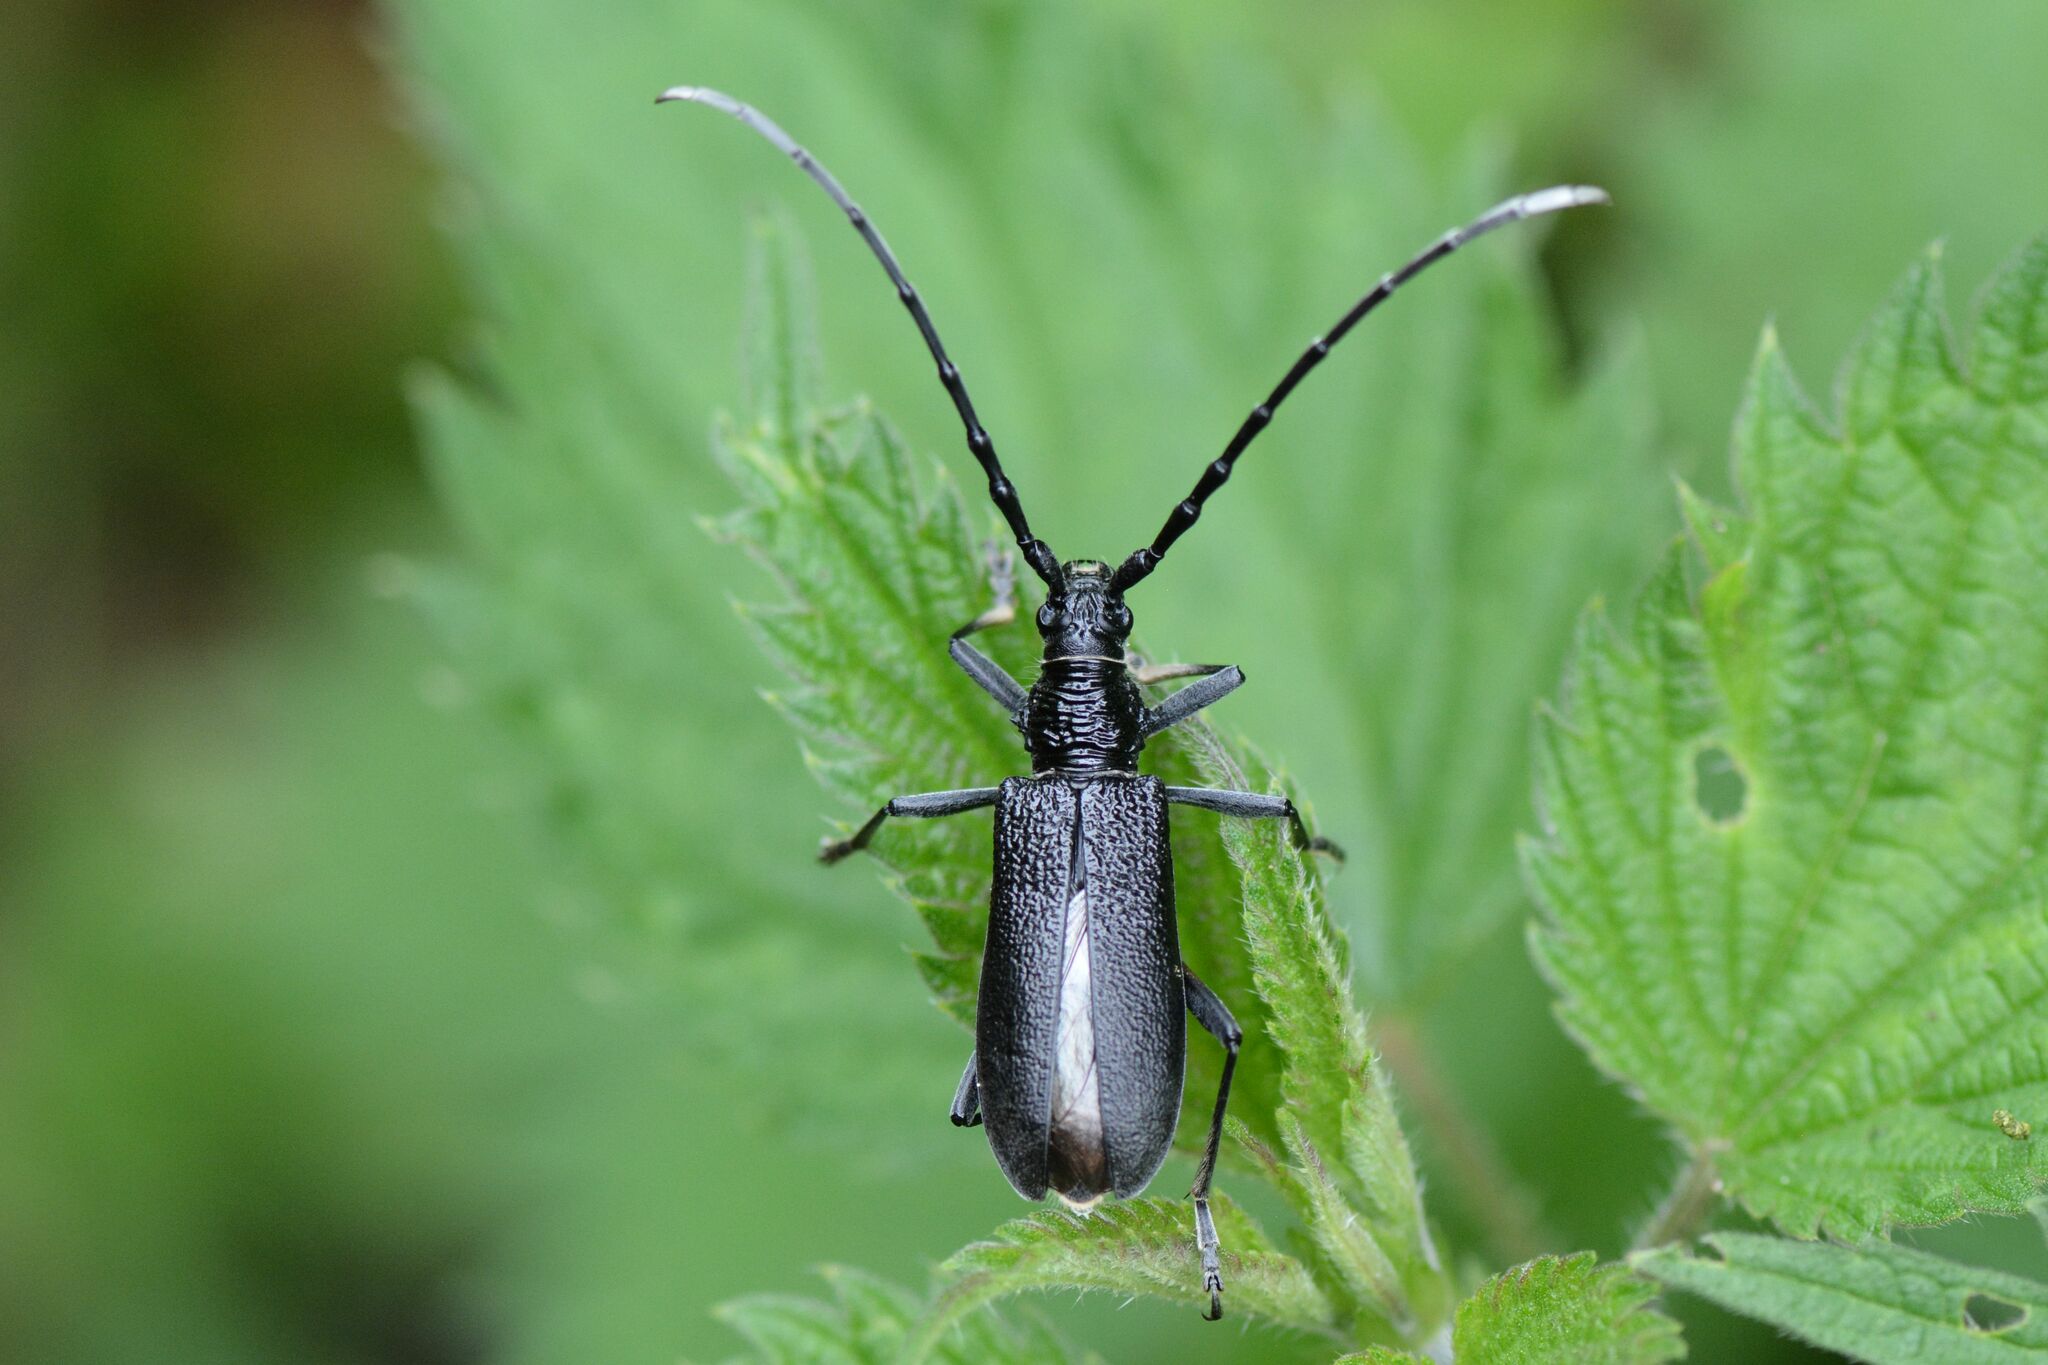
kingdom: Animalia
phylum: Arthropoda
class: Insecta
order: Coleoptera
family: Cerambycidae
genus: Cerambyx
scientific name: Cerambyx scopolii
